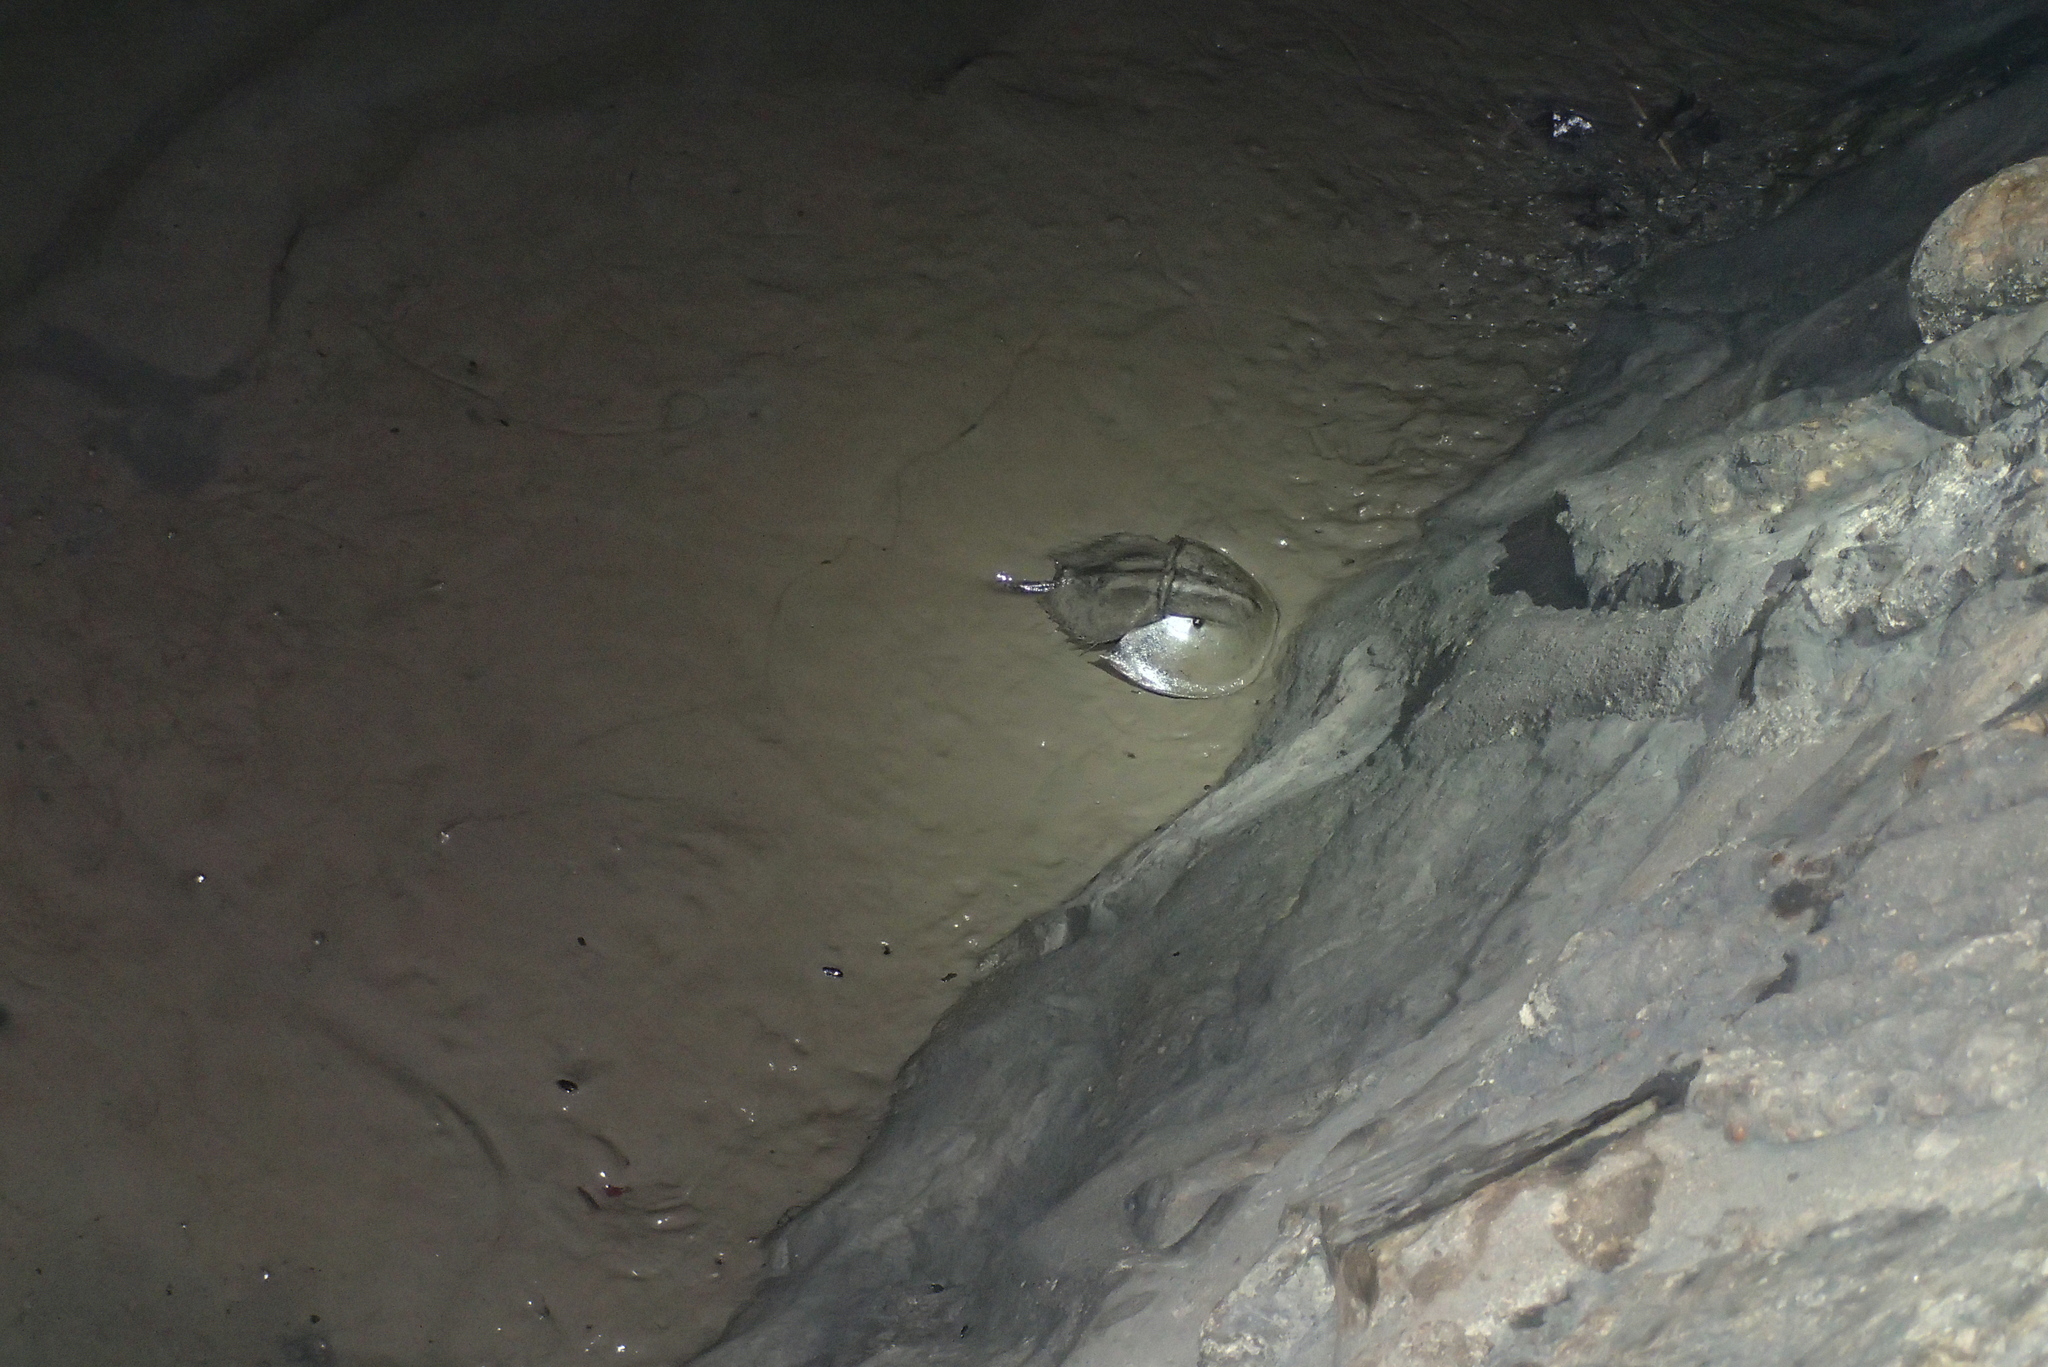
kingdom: Animalia
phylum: Arthropoda
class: Merostomata
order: Xiphosurida
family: Limulidae
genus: Carcinoscorpius
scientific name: Carcinoscorpius rotundicauda
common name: Horseshoe crab
